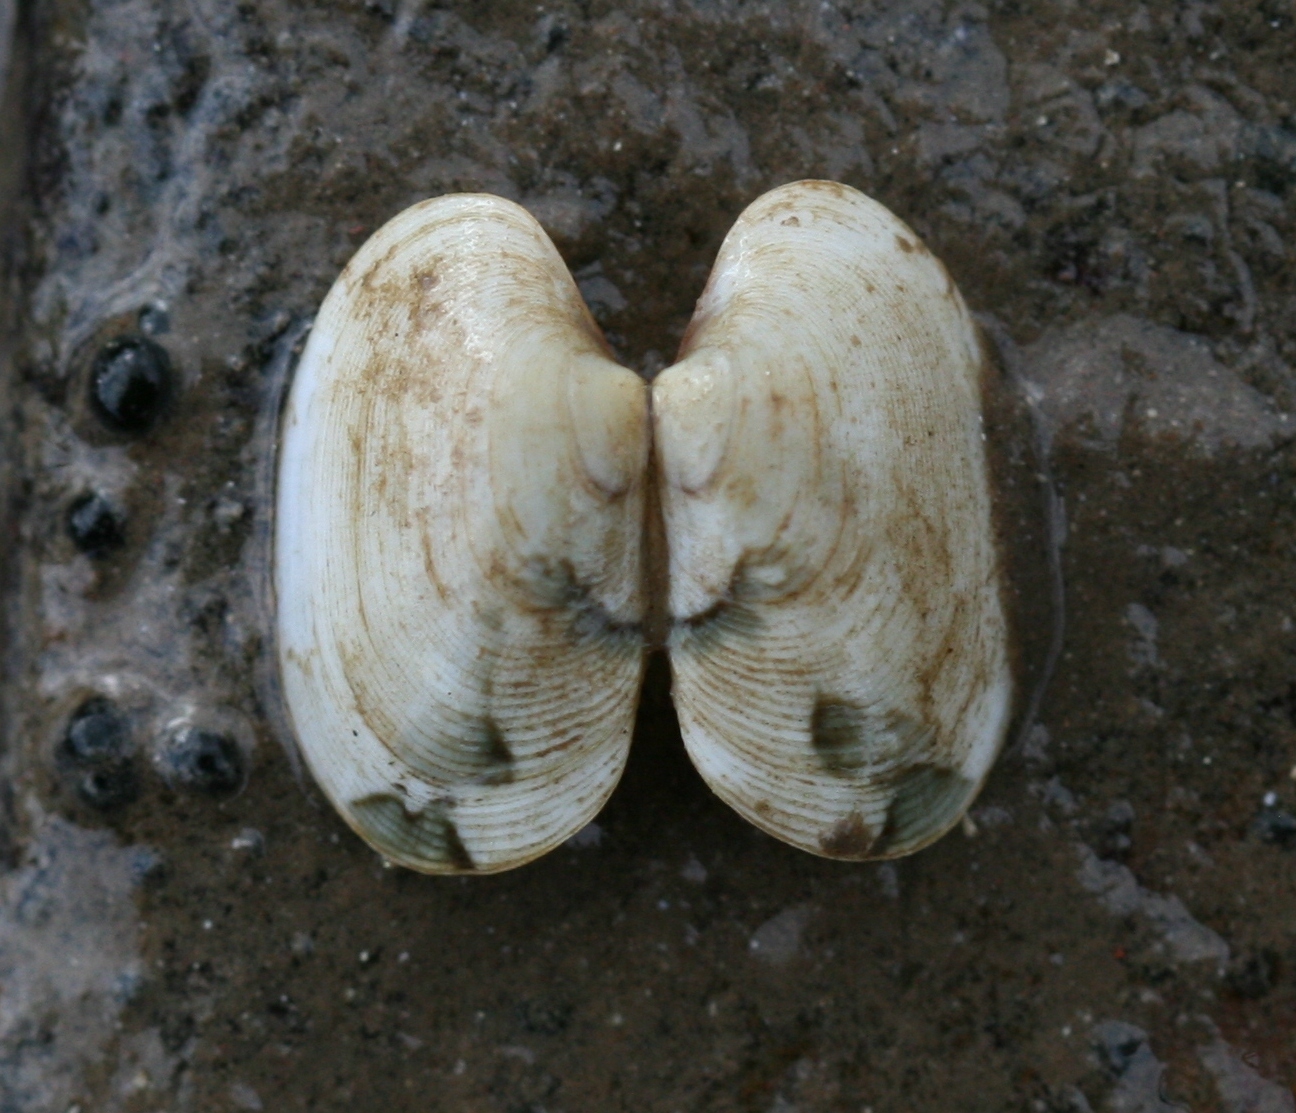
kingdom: Animalia
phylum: Mollusca
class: Bivalvia
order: Venerida
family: Veneridae
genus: Venerupis
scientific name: Venerupis corrugata
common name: Pullet carpet shell
